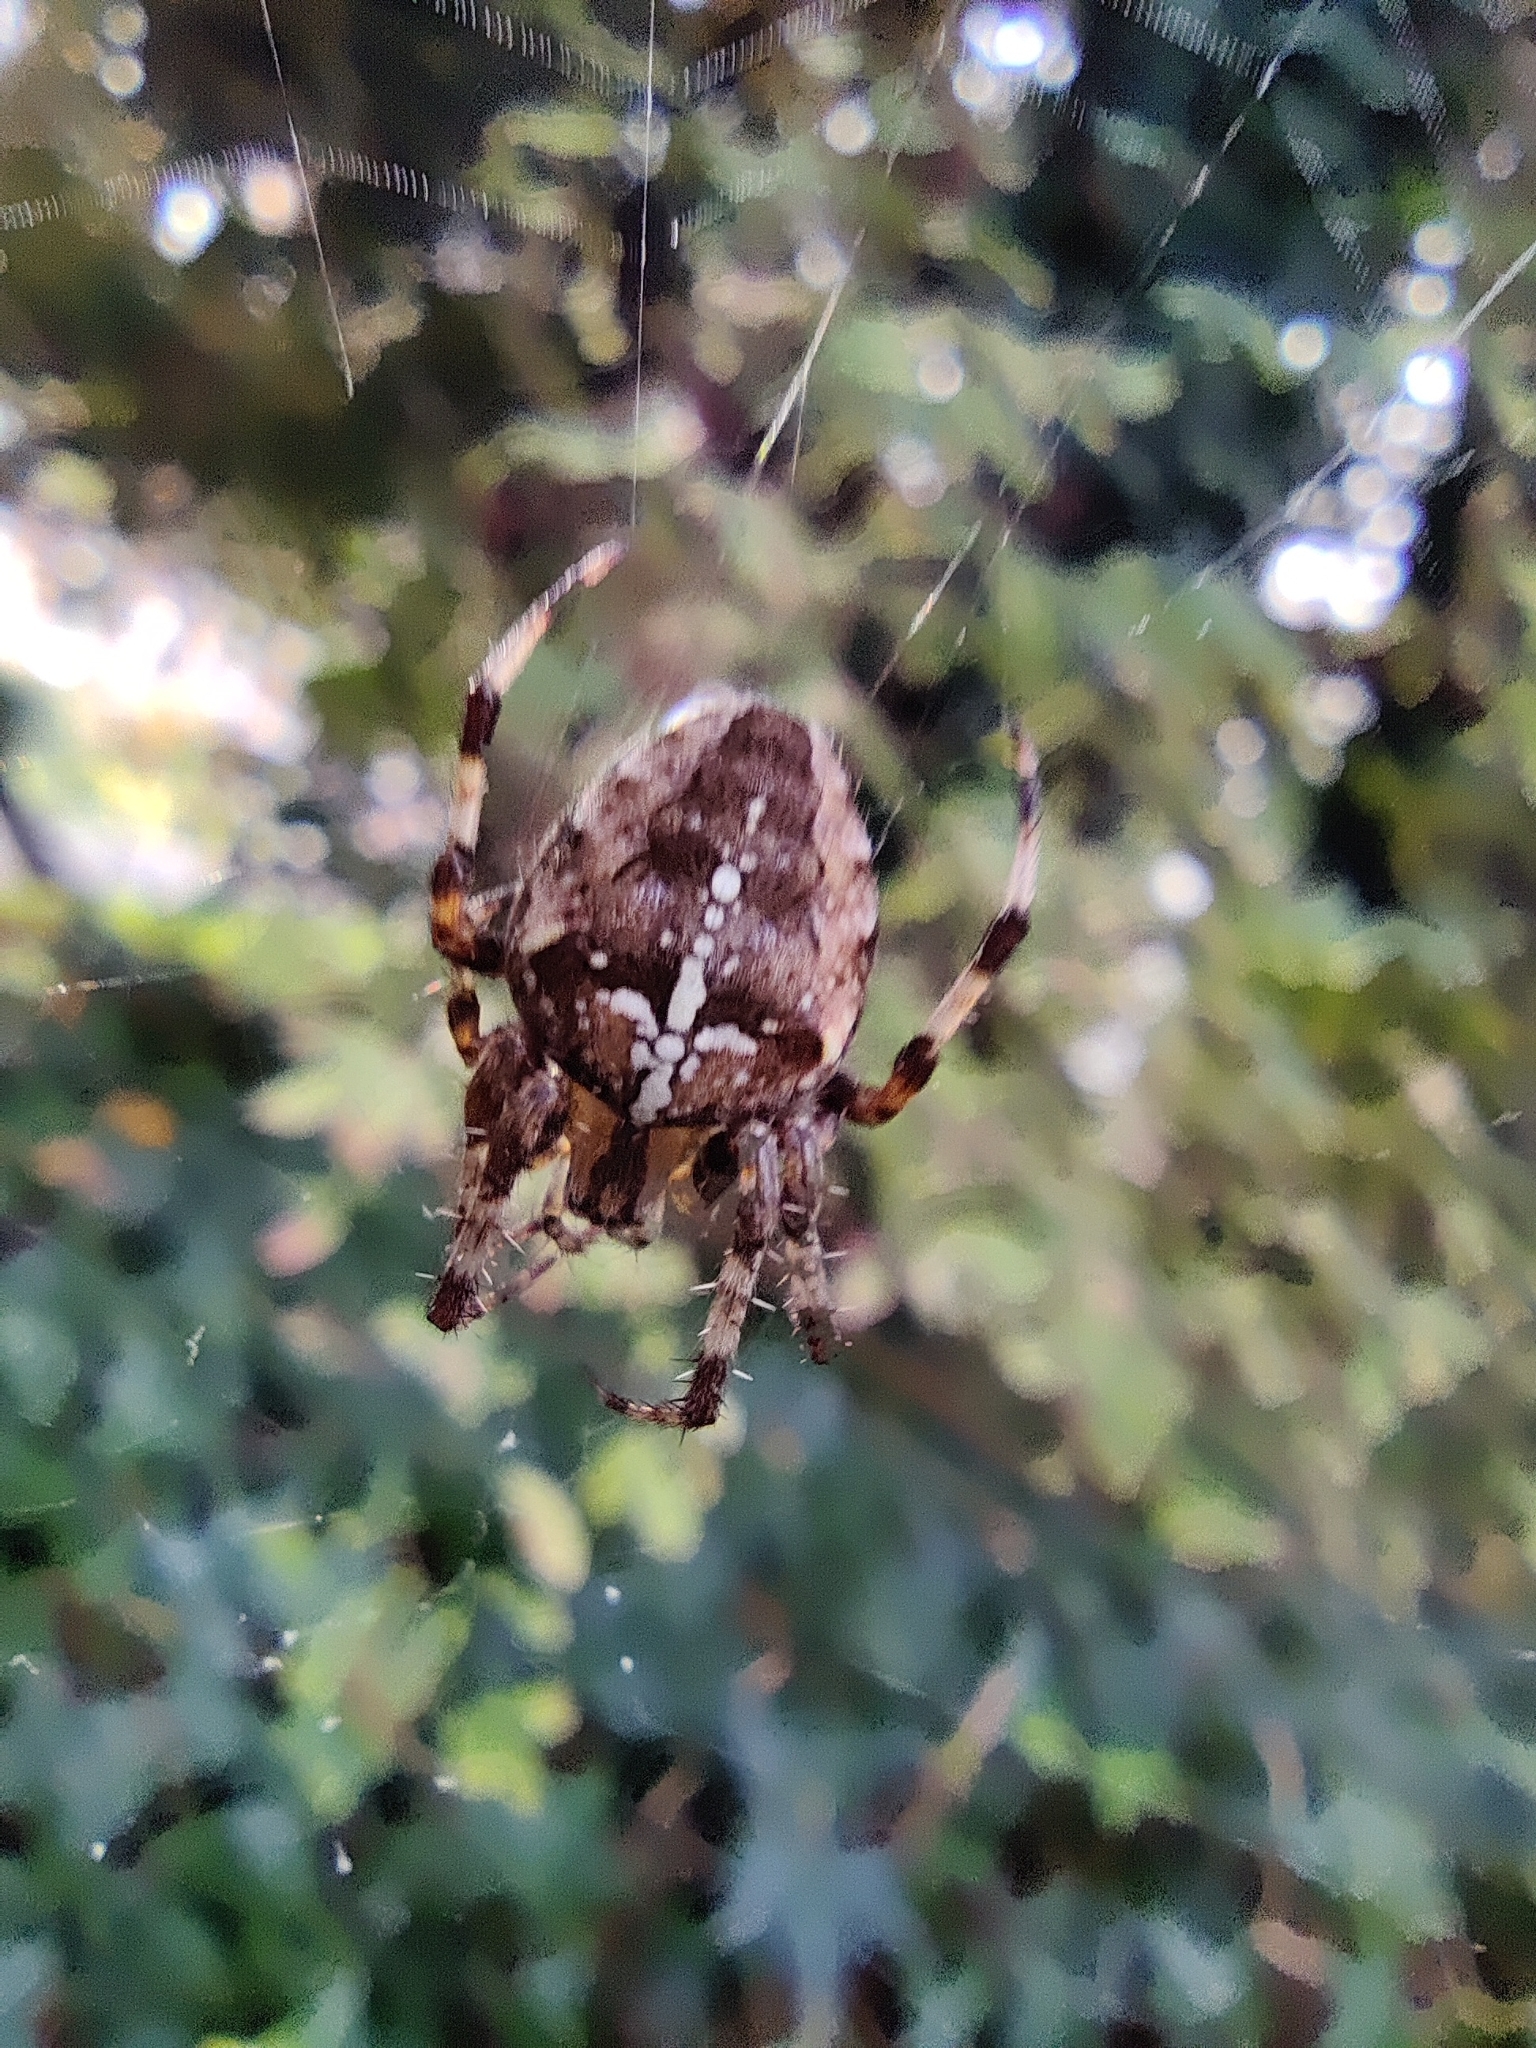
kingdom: Animalia
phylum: Arthropoda
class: Arachnida
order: Araneae
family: Araneidae
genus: Araneus
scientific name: Araneus diadematus
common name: Cross orbweaver
